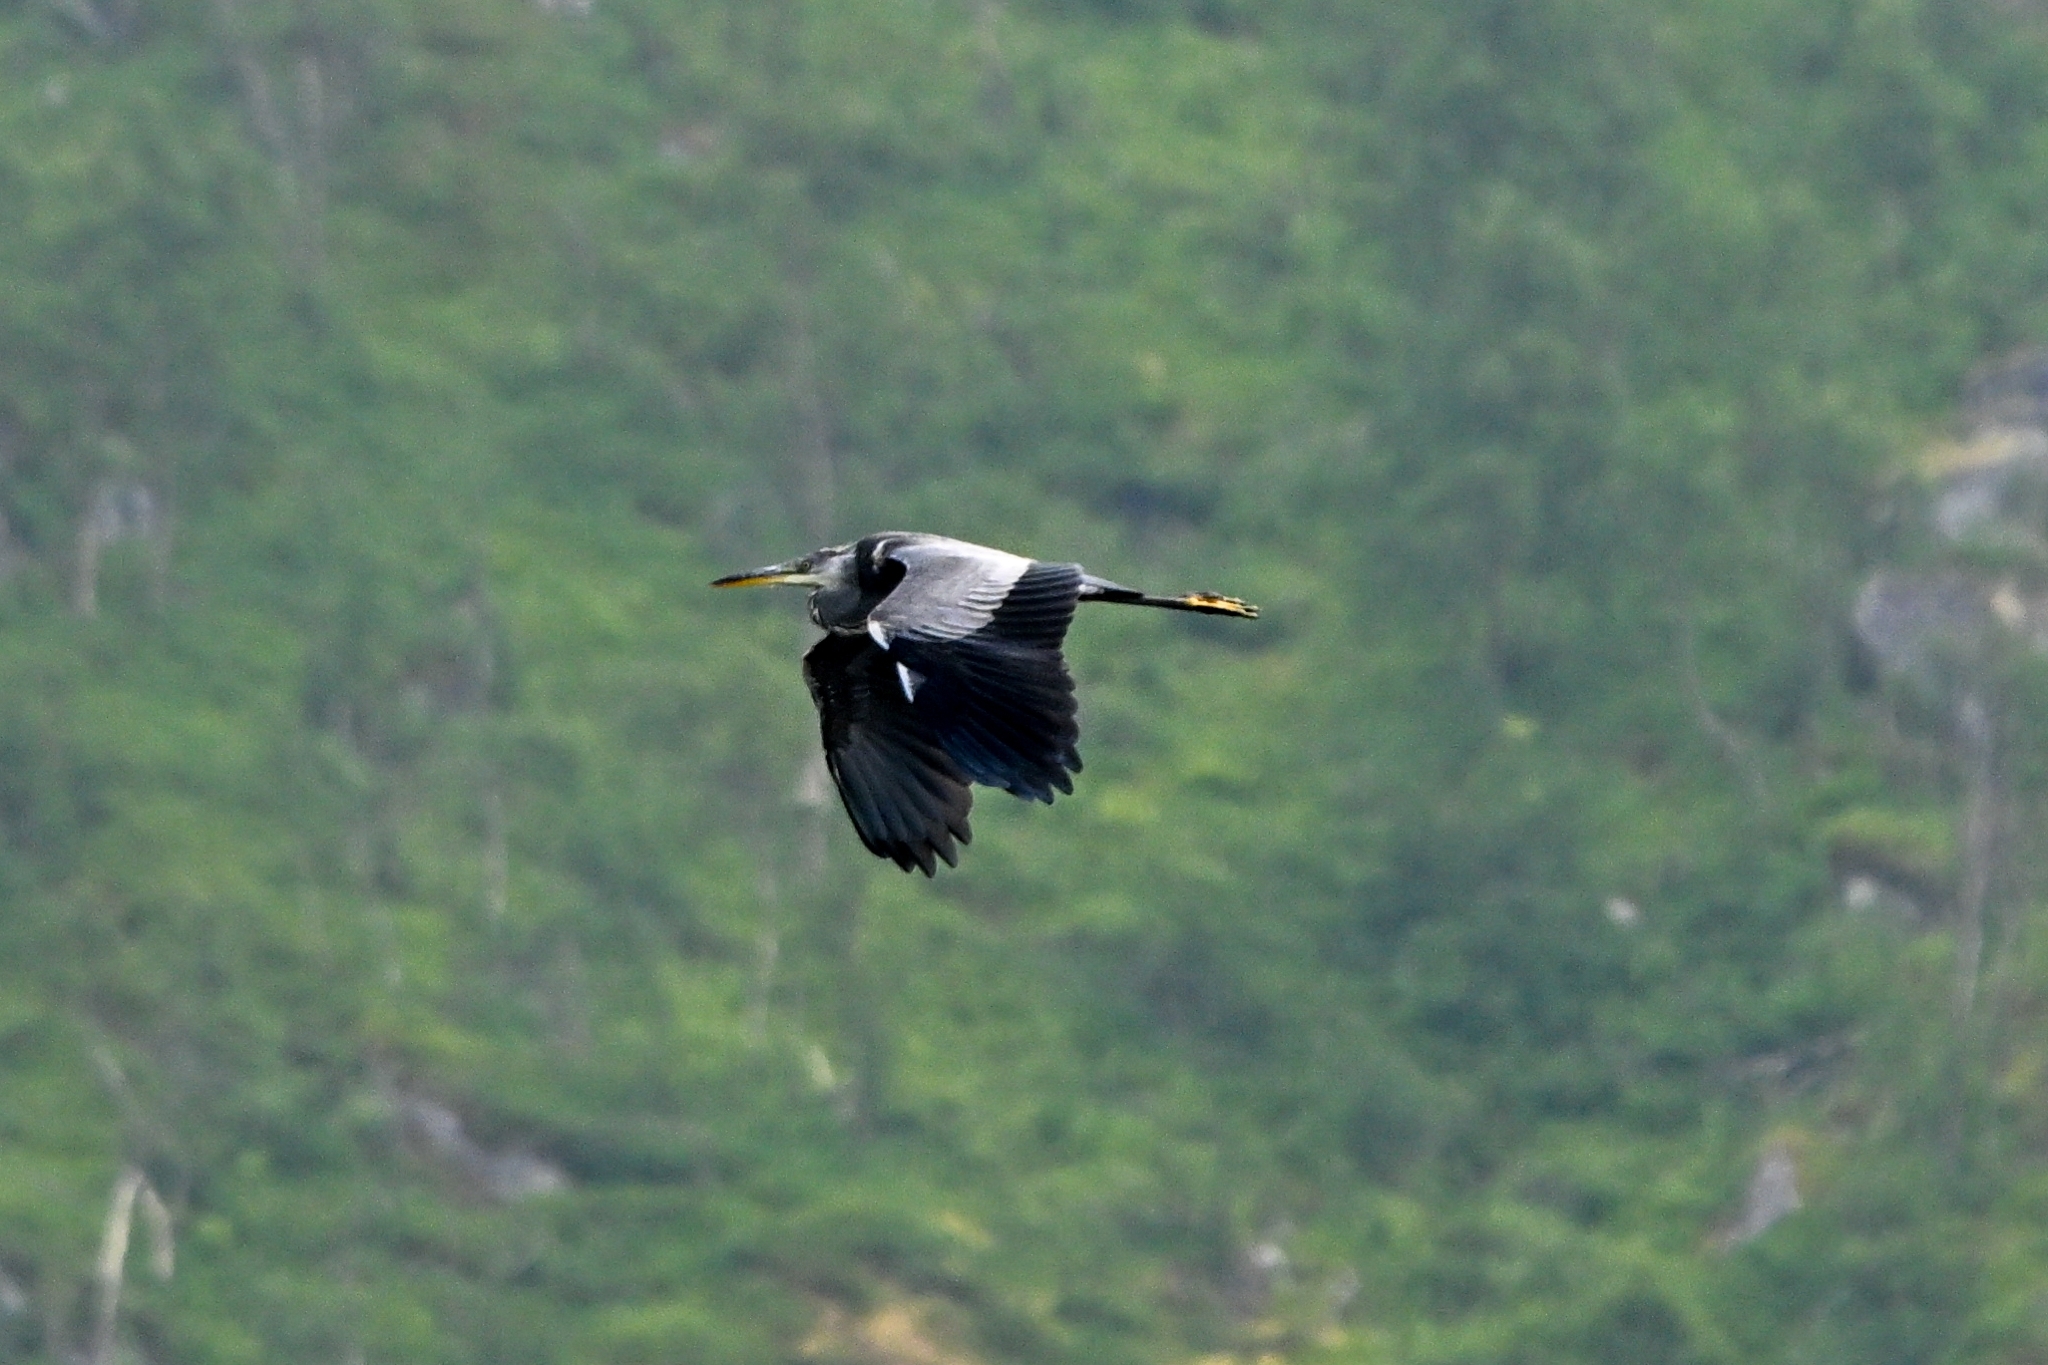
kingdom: Animalia
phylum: Chordata
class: Aves
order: Pelecaniformes
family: Ardeidae
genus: Ardea
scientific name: Ardea cinerea
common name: Grey heron
